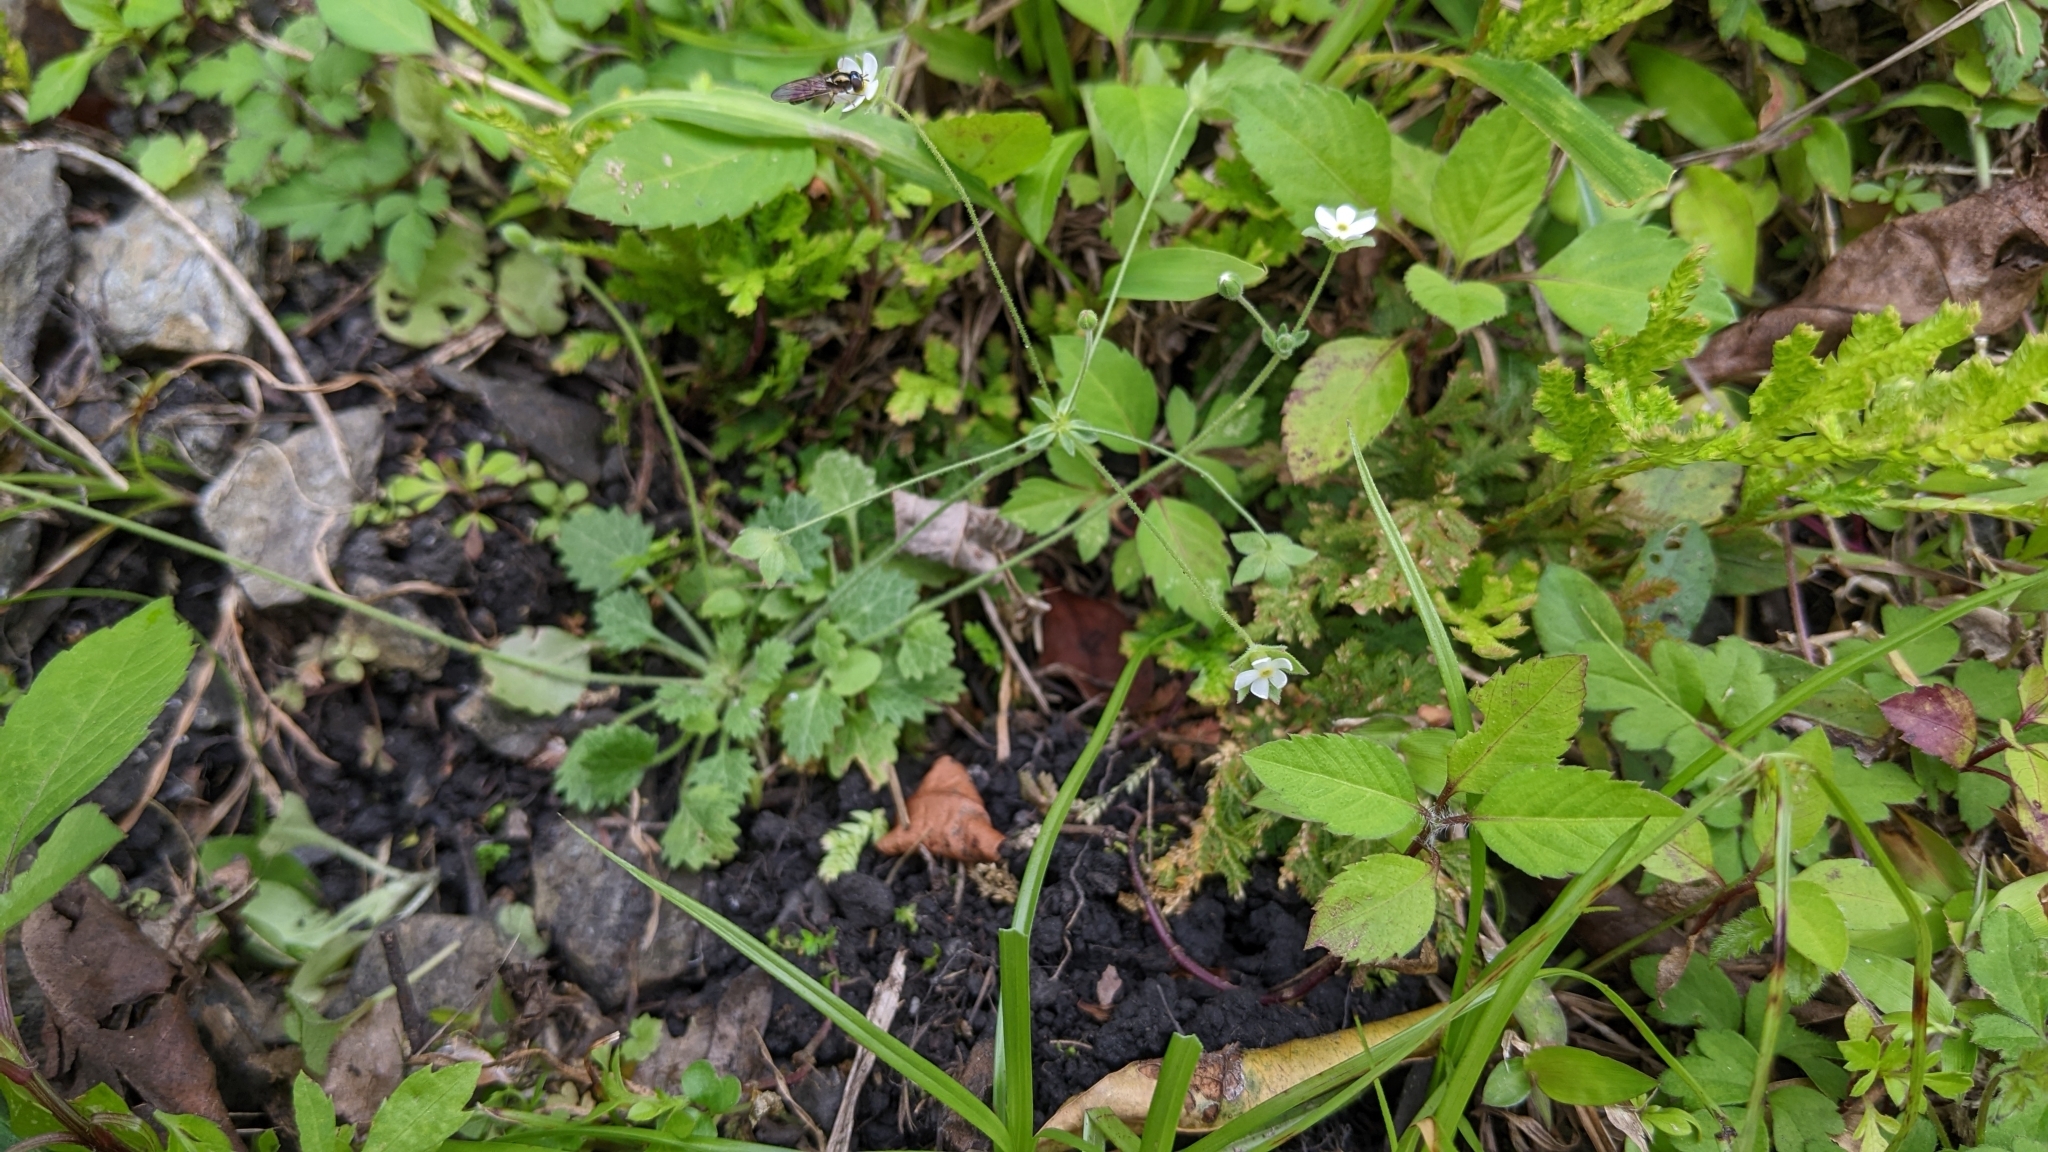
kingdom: Plantae
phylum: Tracheophyta
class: Magnoliopsida
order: Ericales
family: Primulaceae
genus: Androsace
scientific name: Androsace umbellata
